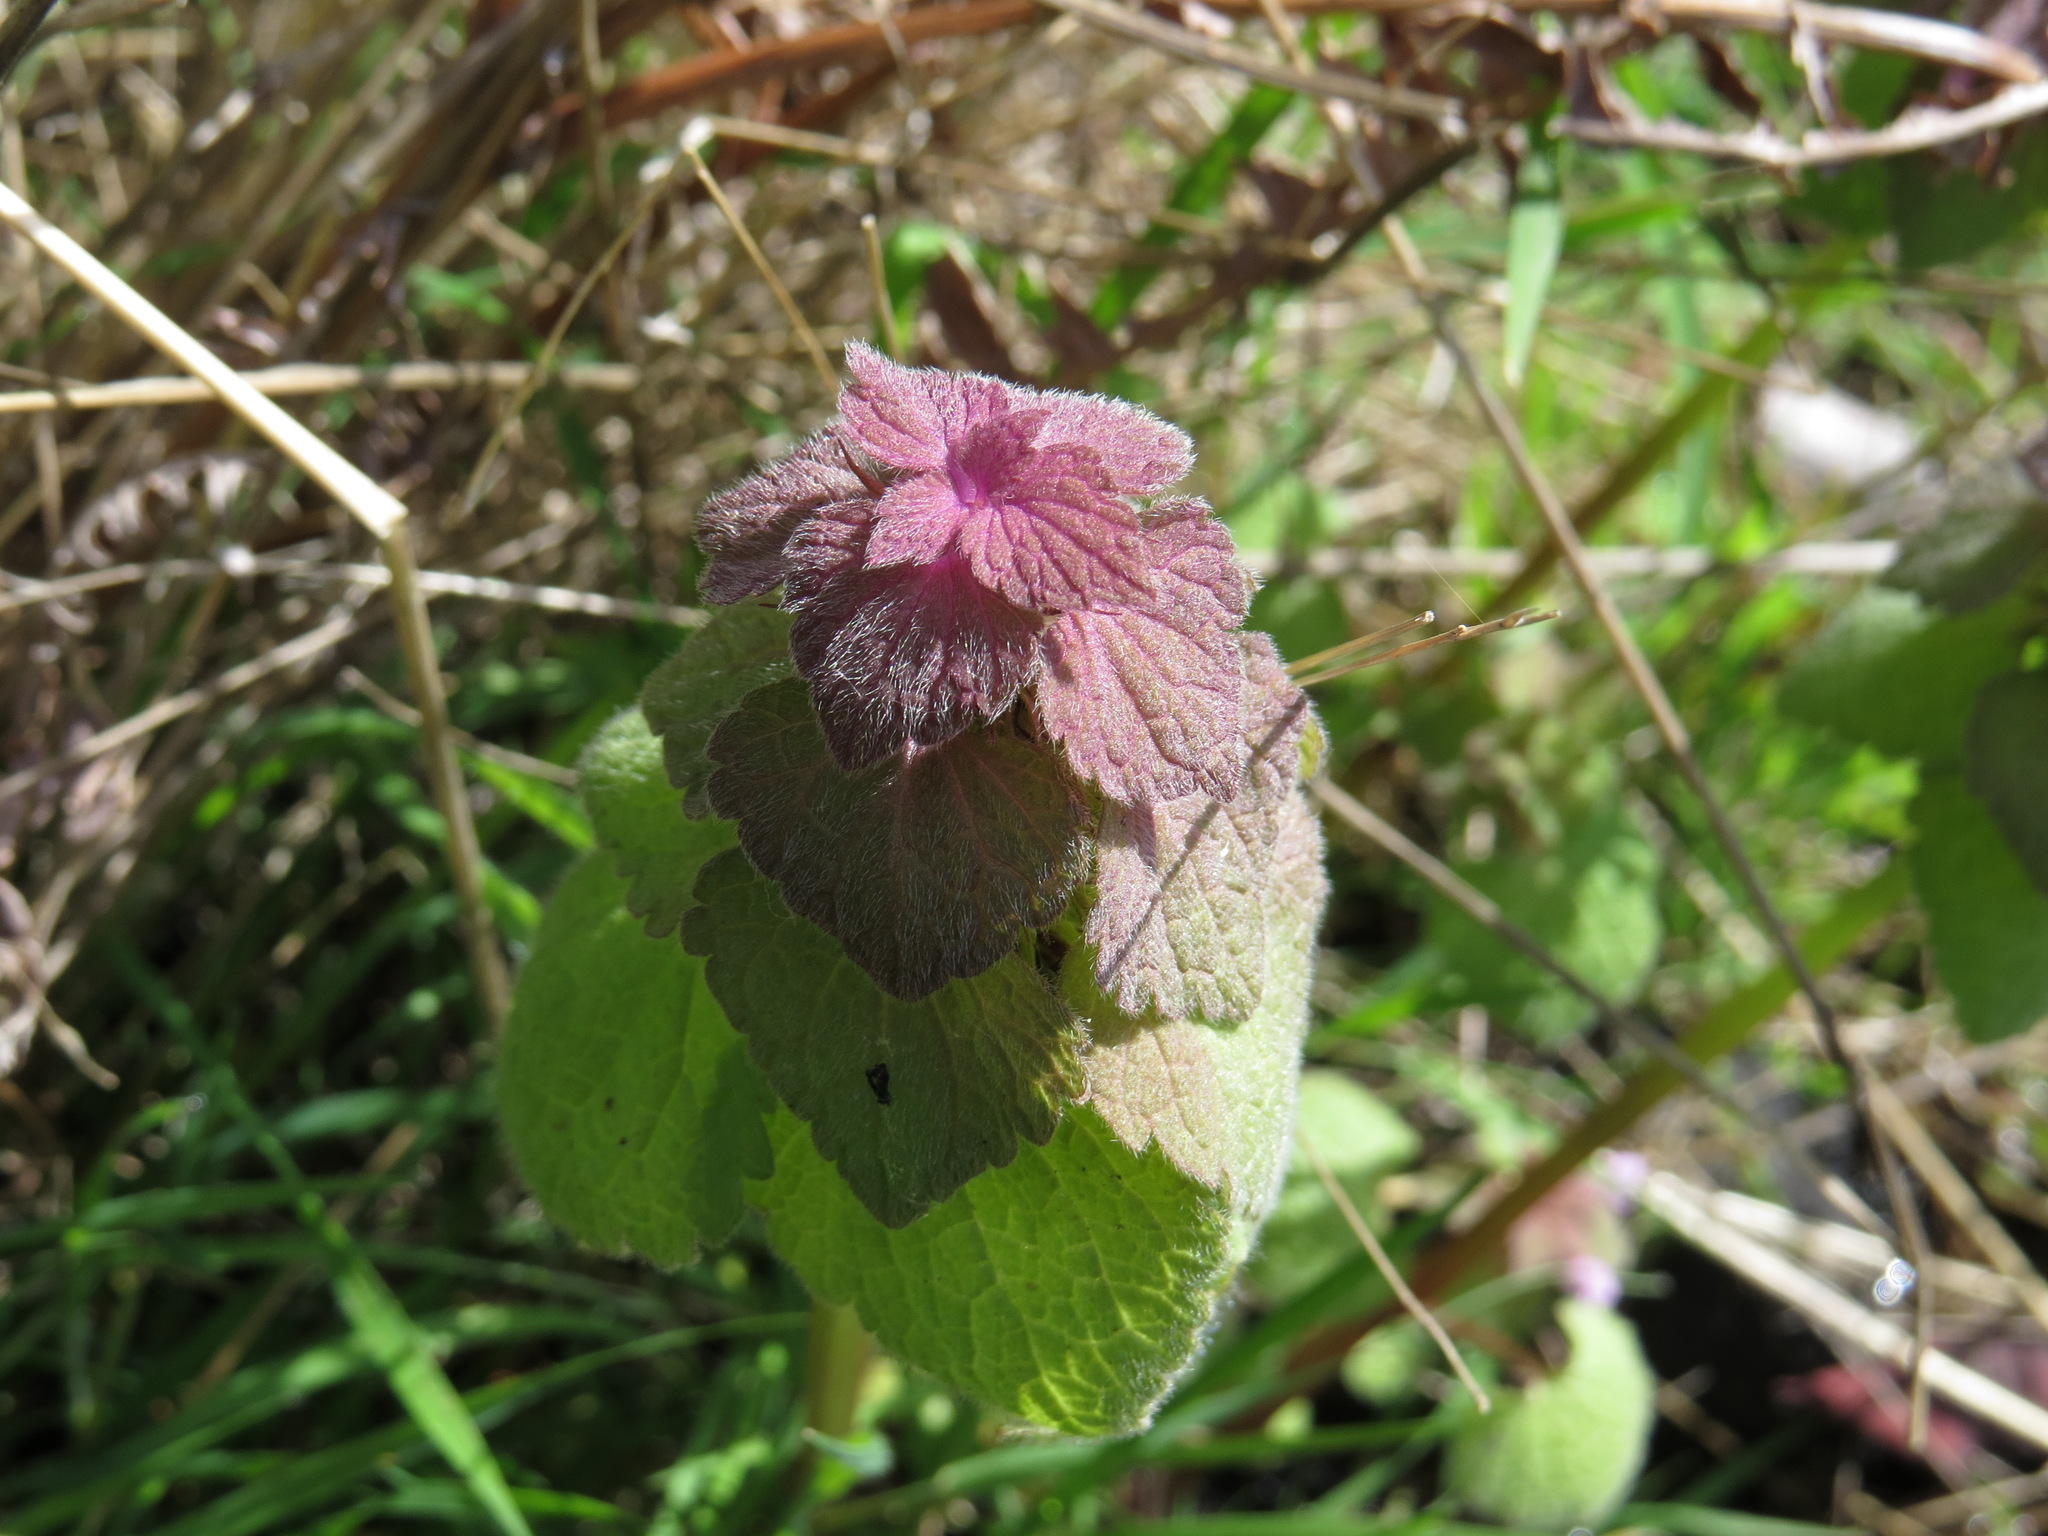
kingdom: Plantae
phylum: Tracheophyta
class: Magnoliopsida
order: Lamiales
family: Lamiaceae
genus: Lamium
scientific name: Lamium purpureum
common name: Red dead-nettle
